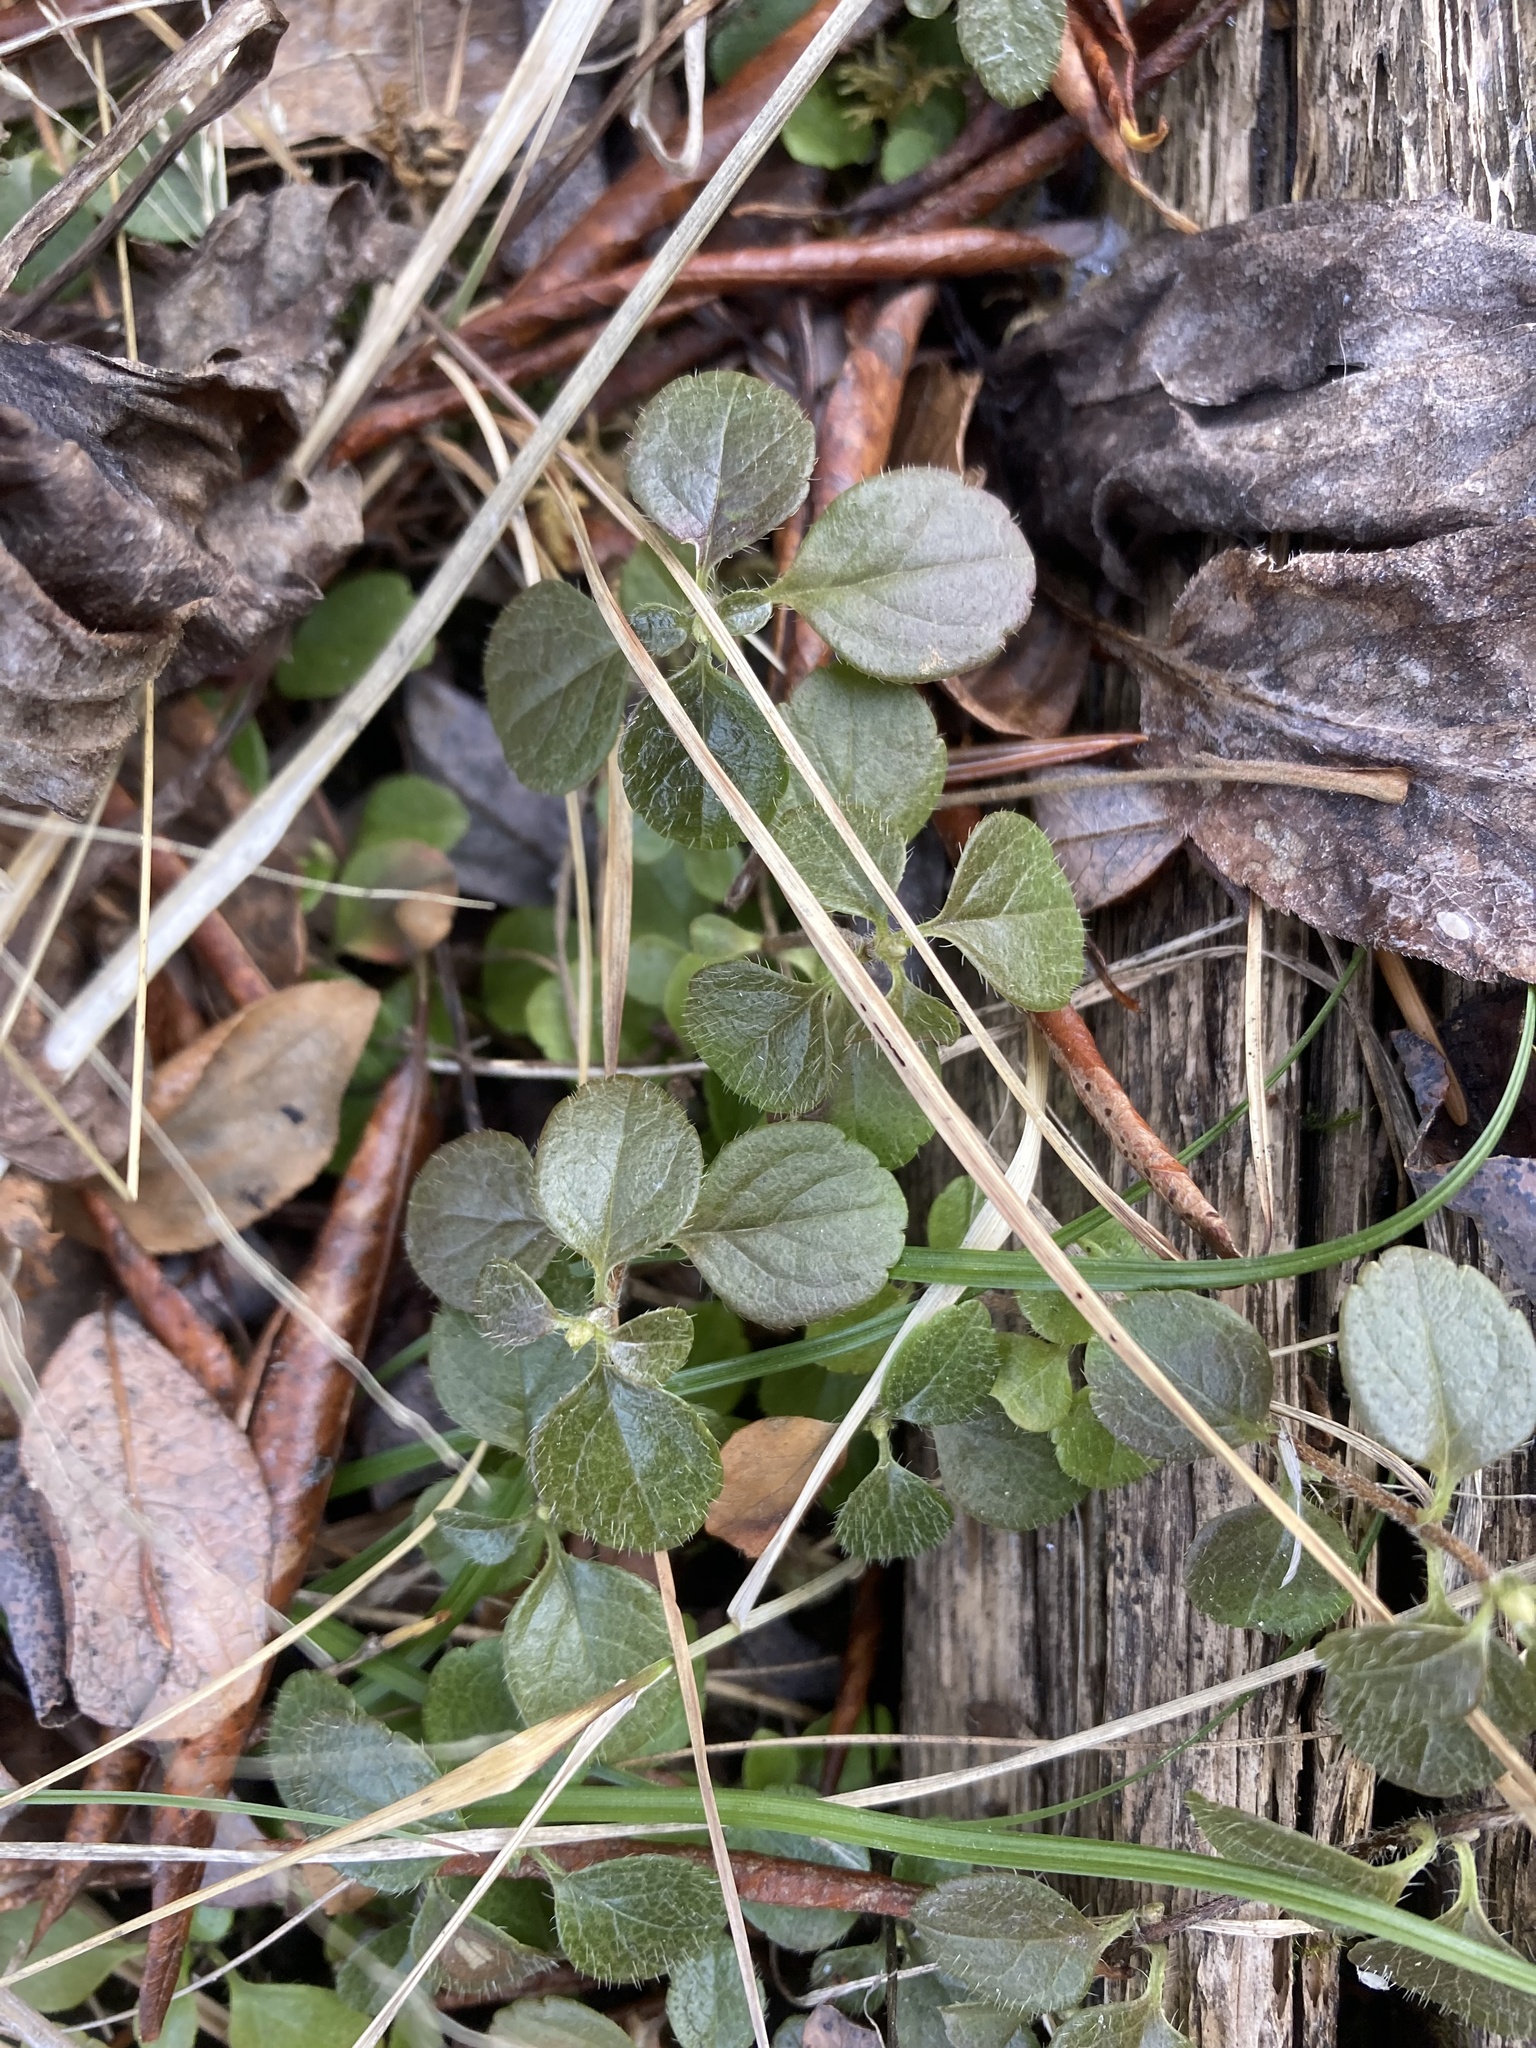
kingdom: Plantae
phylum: Tracheophyta
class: Magnoliopsida
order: Dipsacales
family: Caprifoliaceae
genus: Linnaea
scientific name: Linnaea borealis
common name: Twinflower
